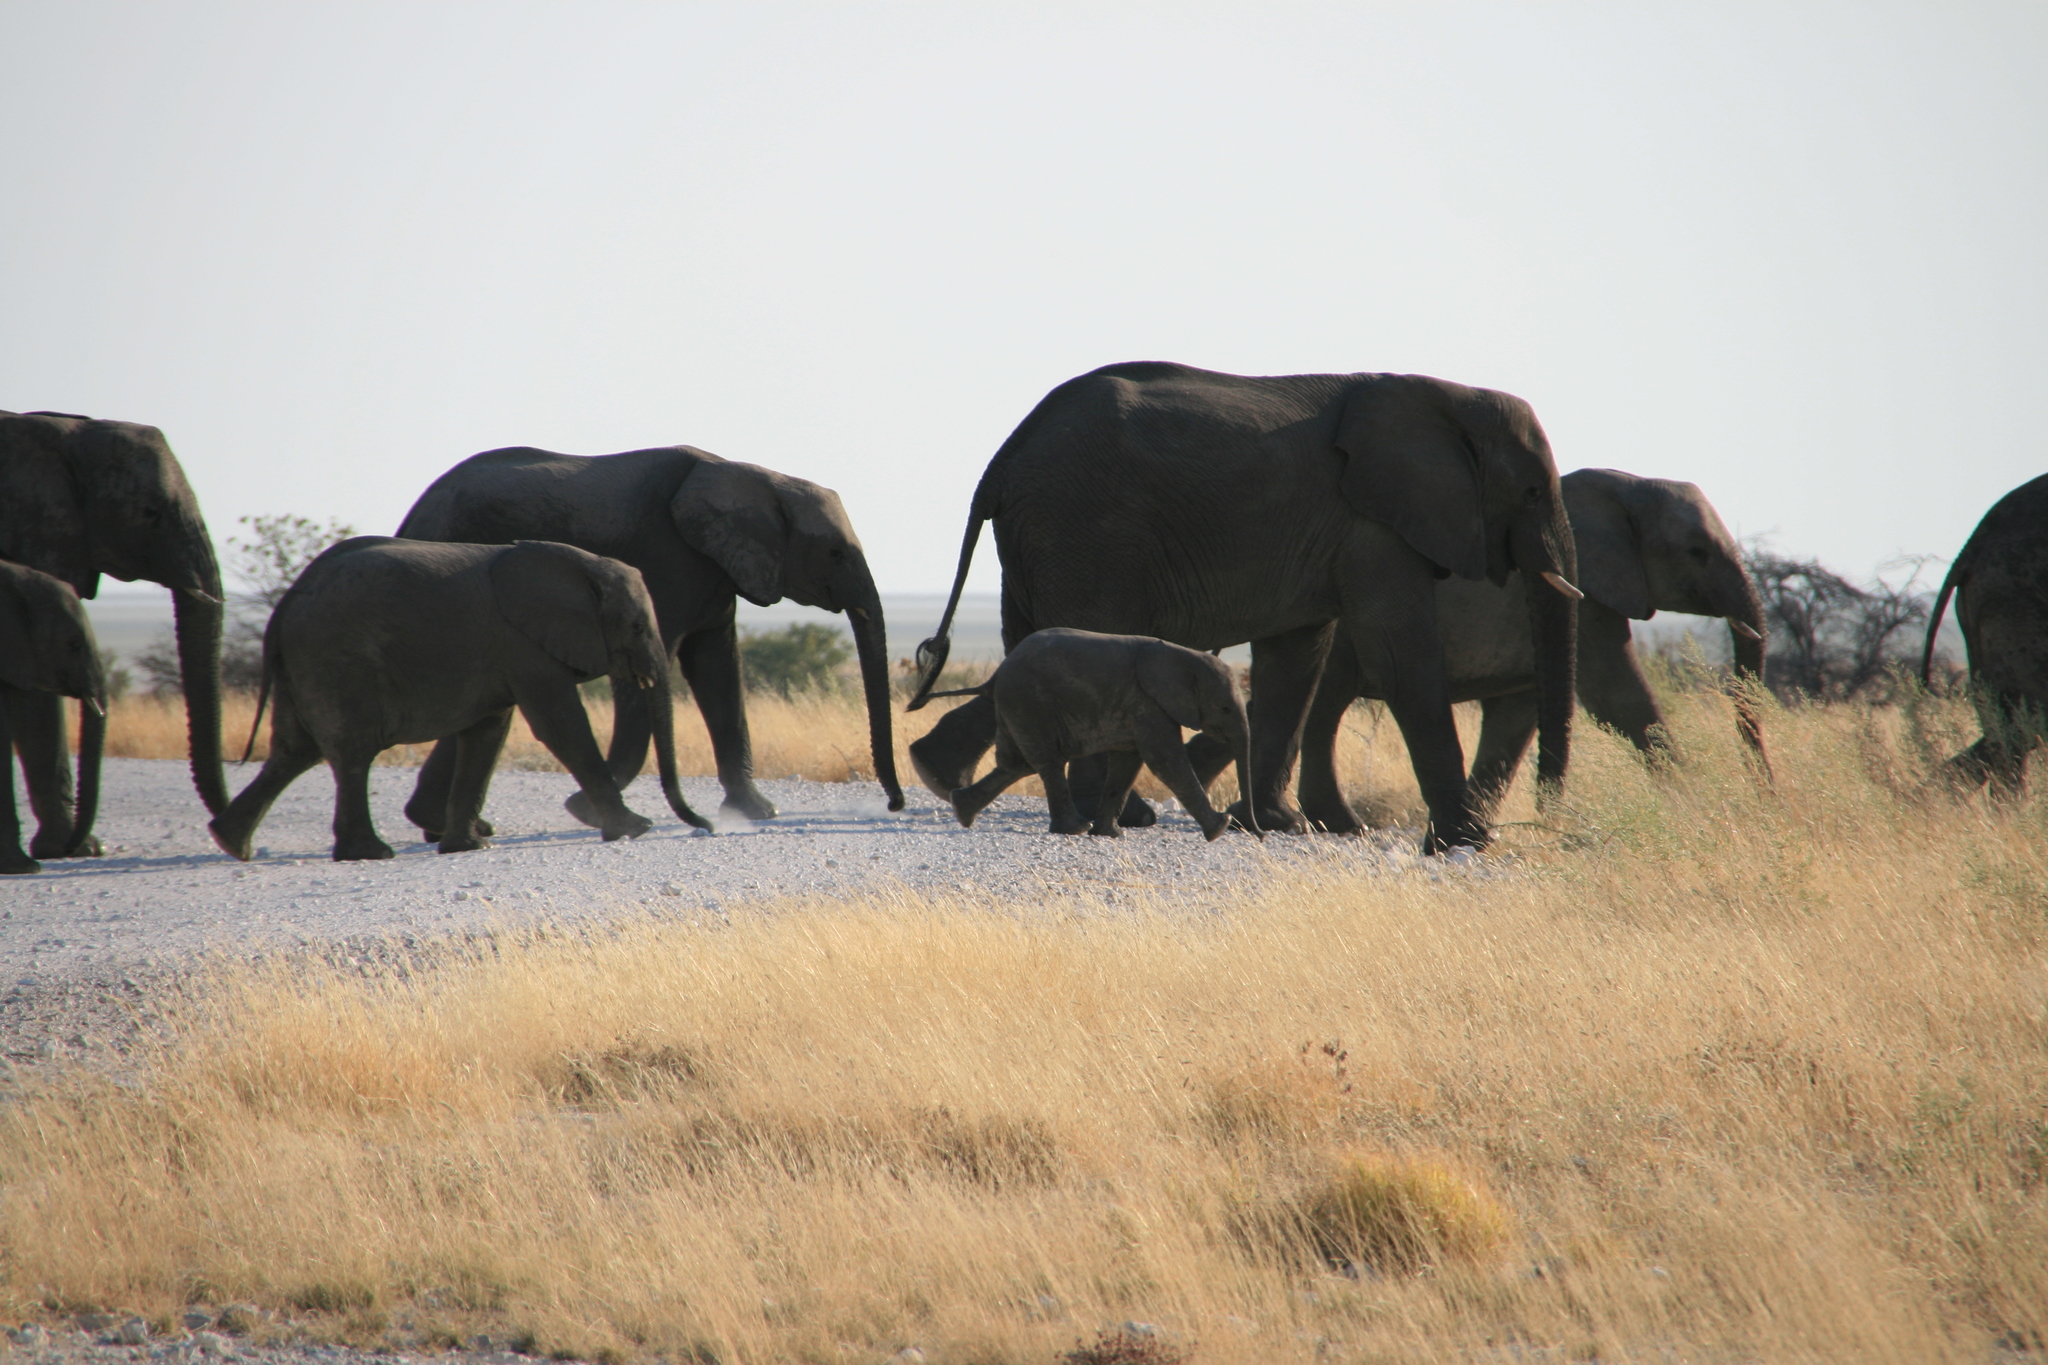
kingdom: Animalia
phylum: Chordata
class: Mammalia
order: Proboscidea
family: Elephantidae
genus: Loxodonta
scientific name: Loxodonta africana
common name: African elephant
